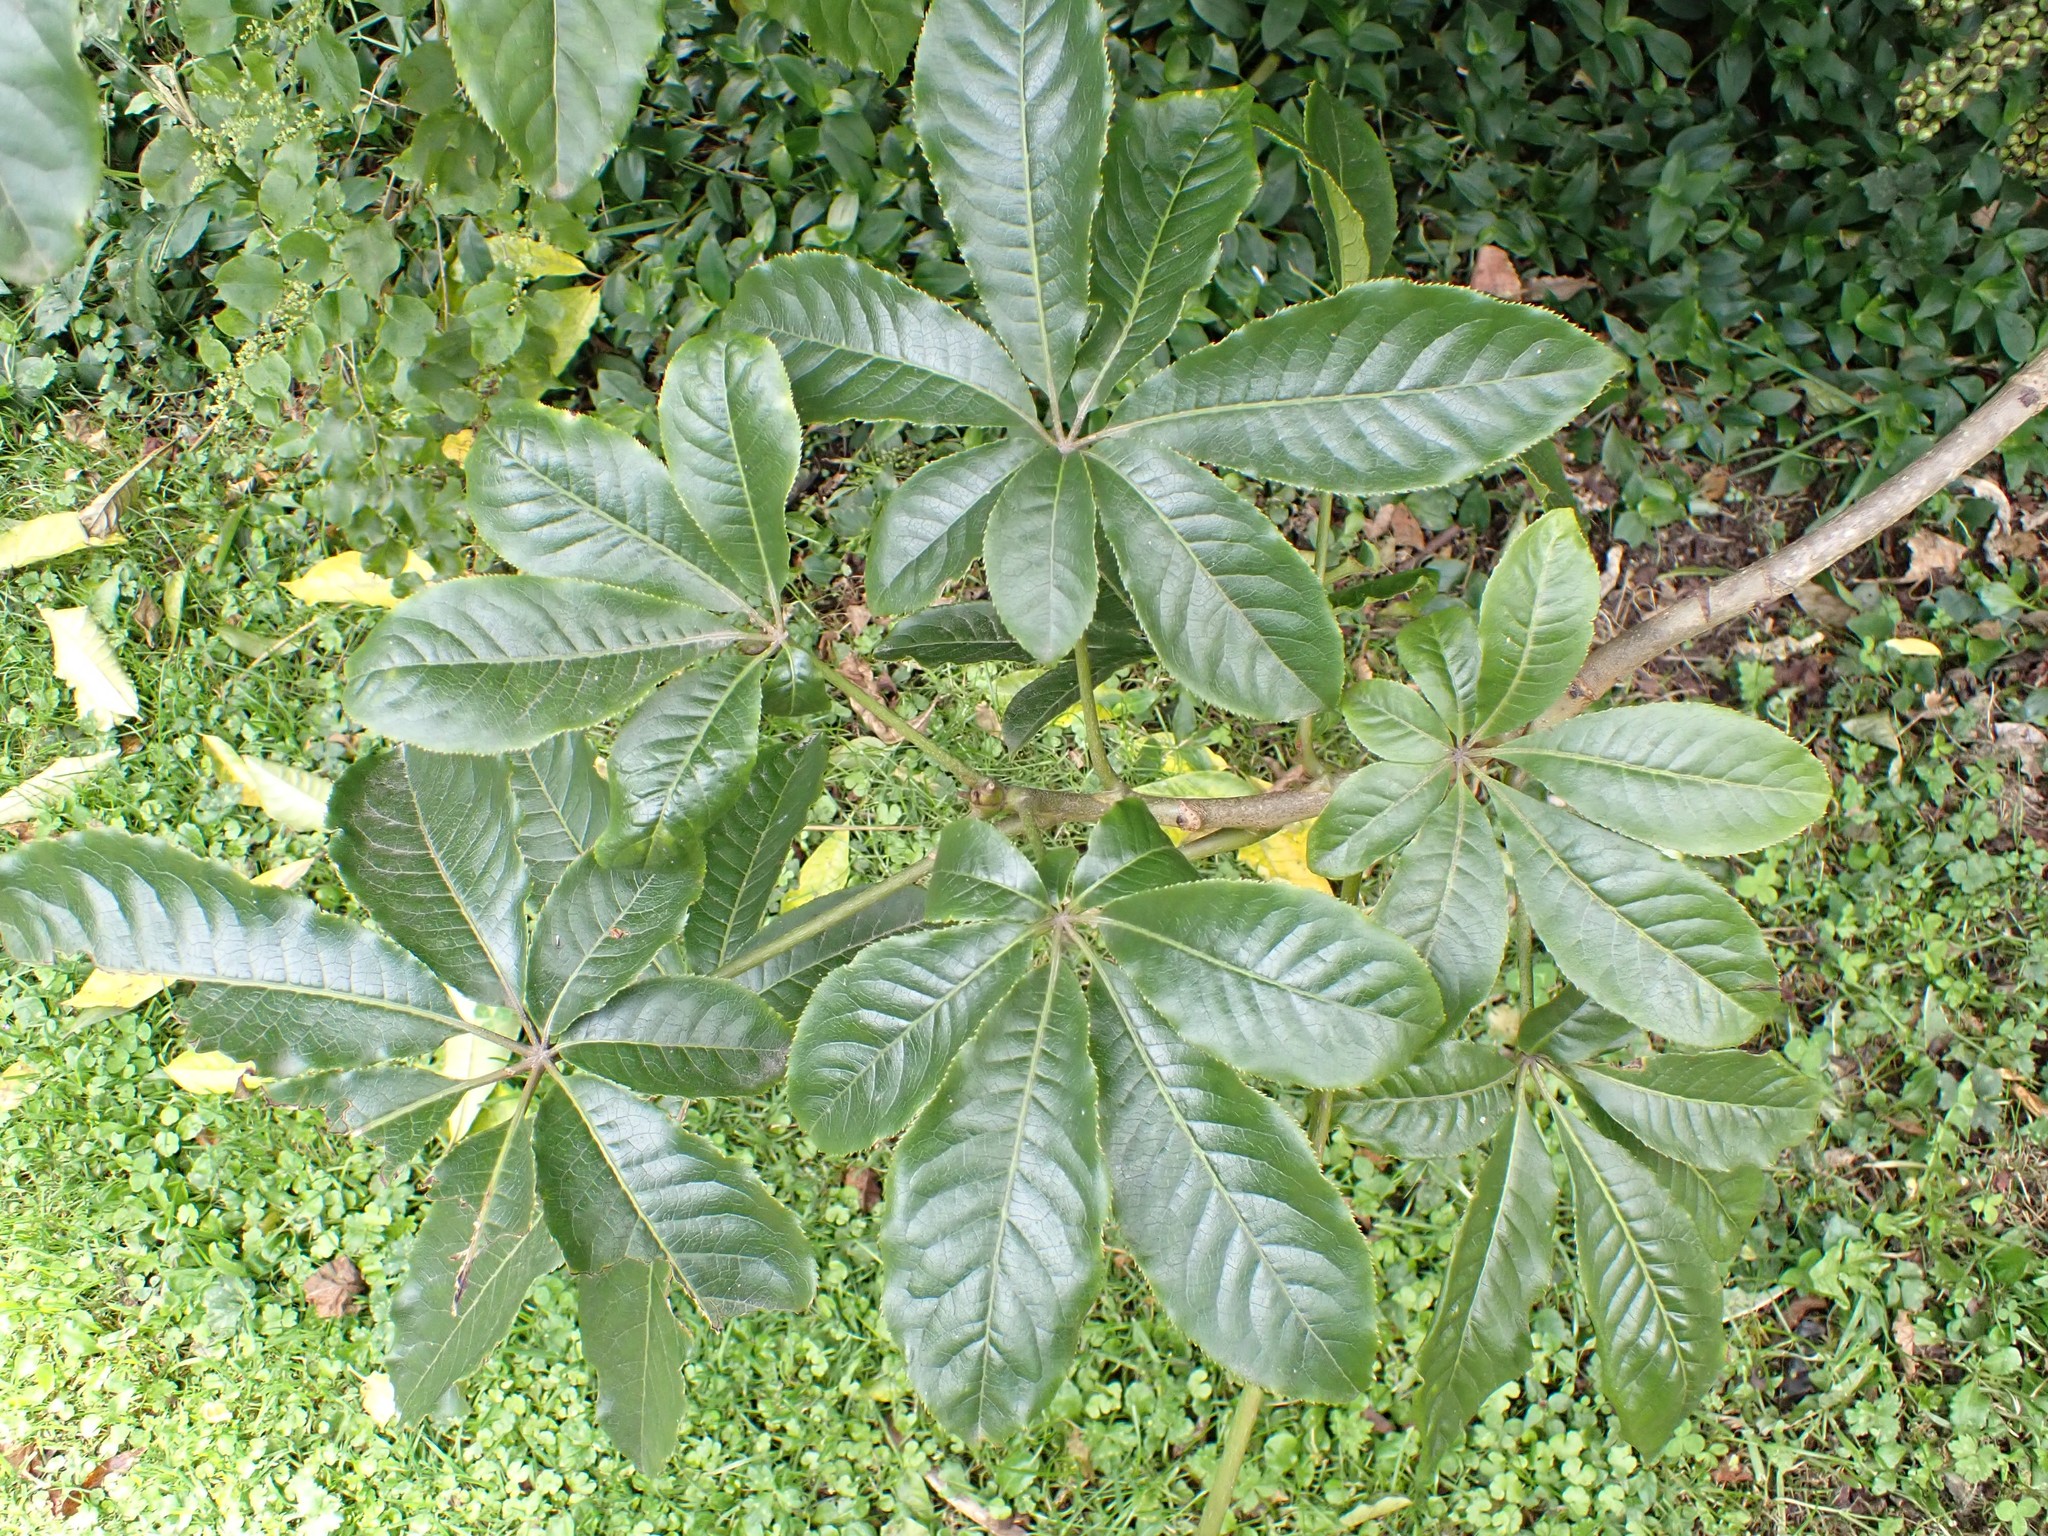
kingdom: Plantae
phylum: Tracheophyta
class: Magnoliopsida
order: Apiales
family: Araliaceae
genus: Schefflera
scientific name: Schefflera digitata
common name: Pate
